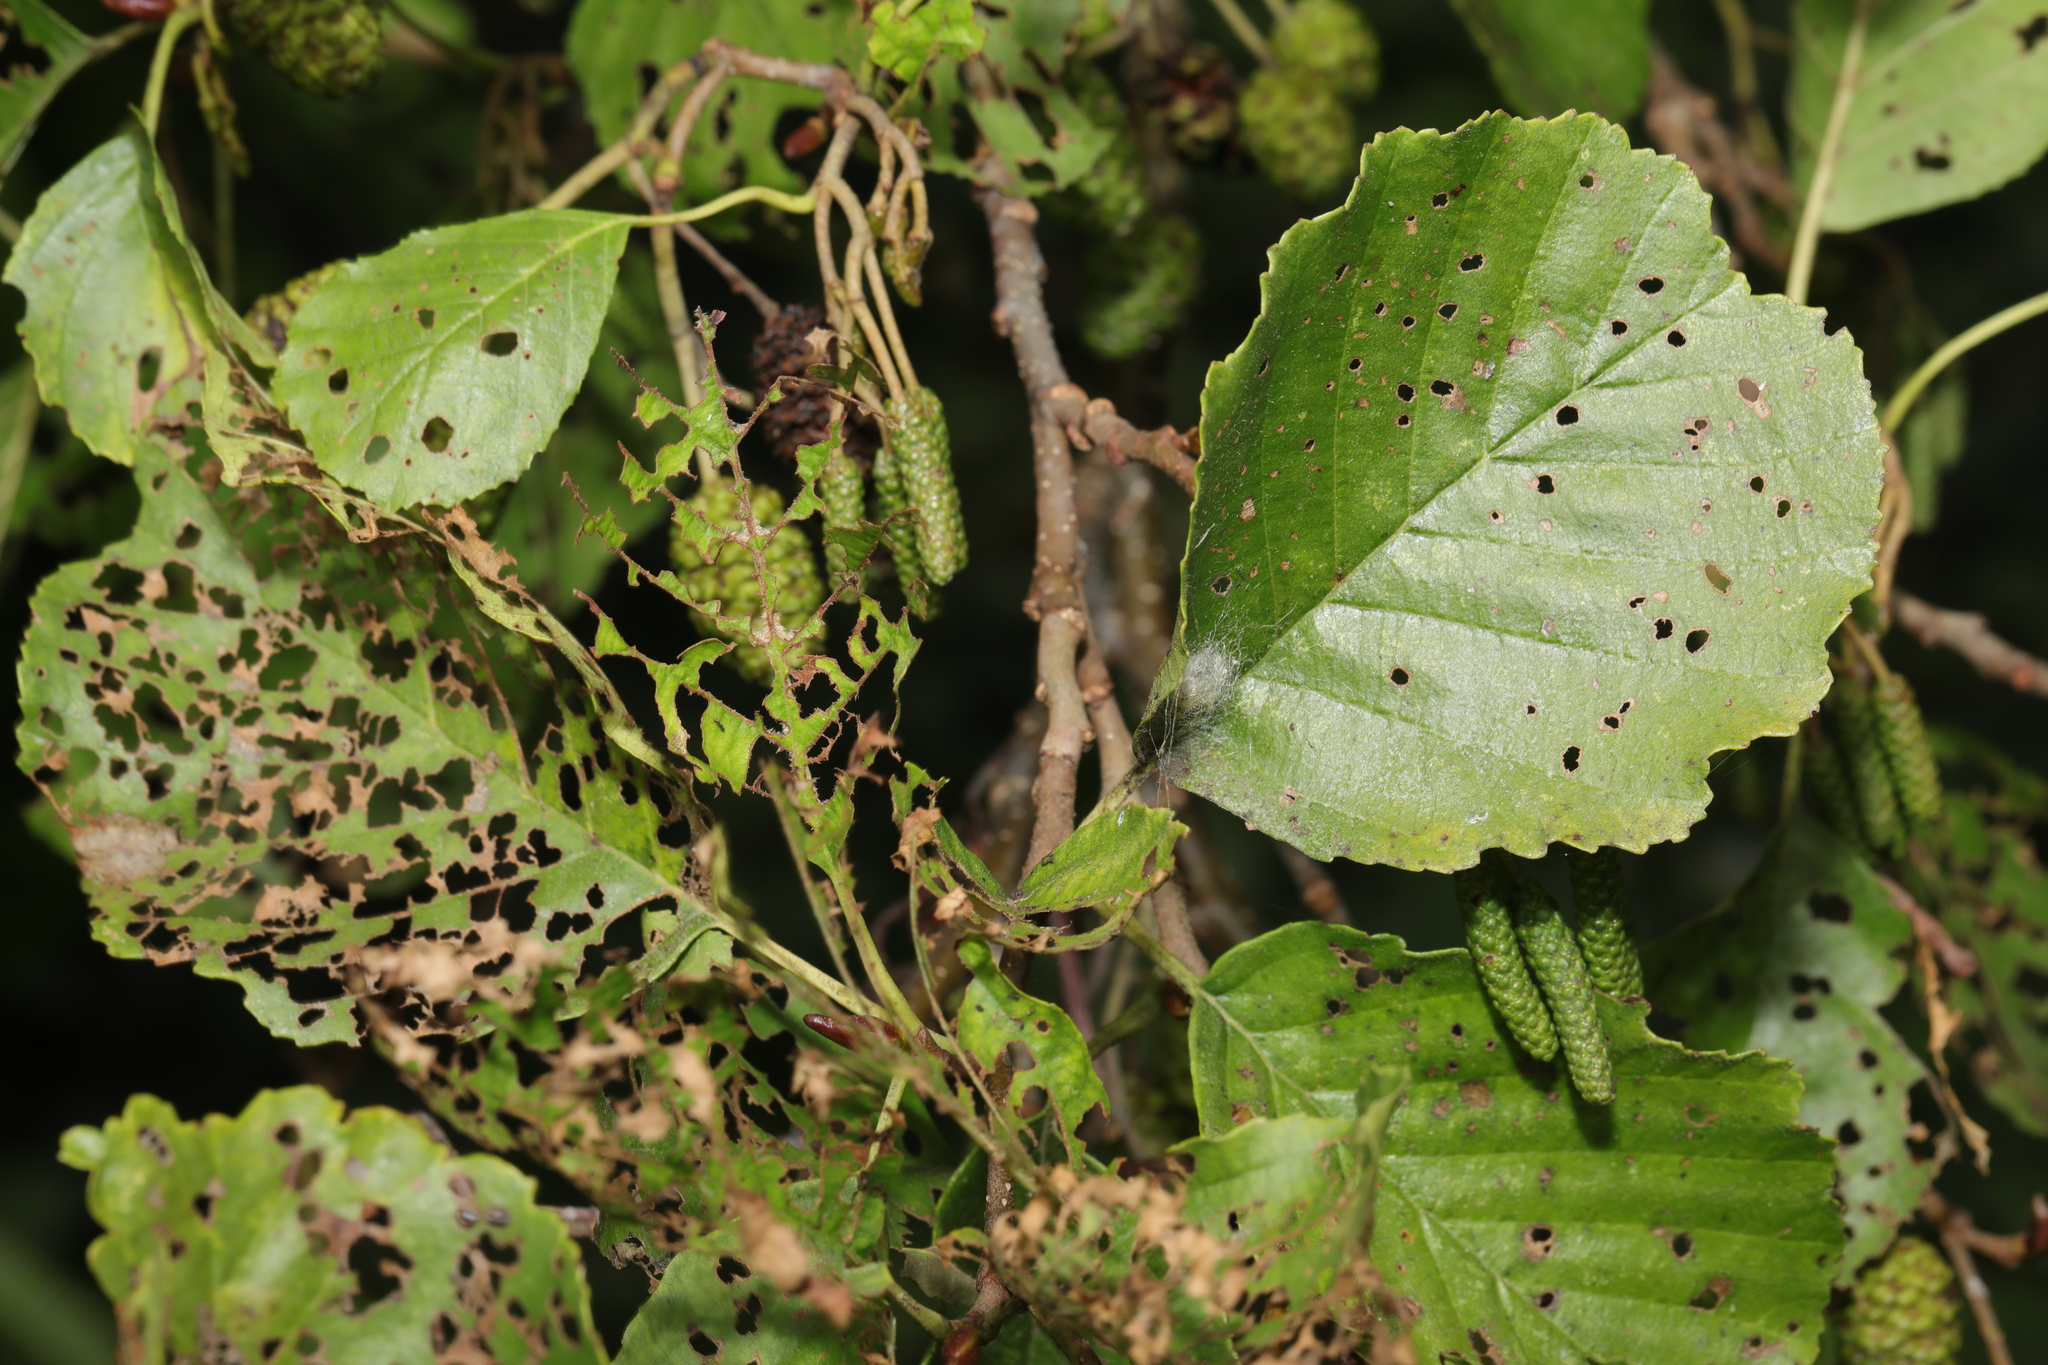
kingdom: Plantae
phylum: Tracheophyta
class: Magnoliopsida
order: Fagales
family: Betulaceae
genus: Alnus
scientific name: Alnus glutinosa
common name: Black alder
